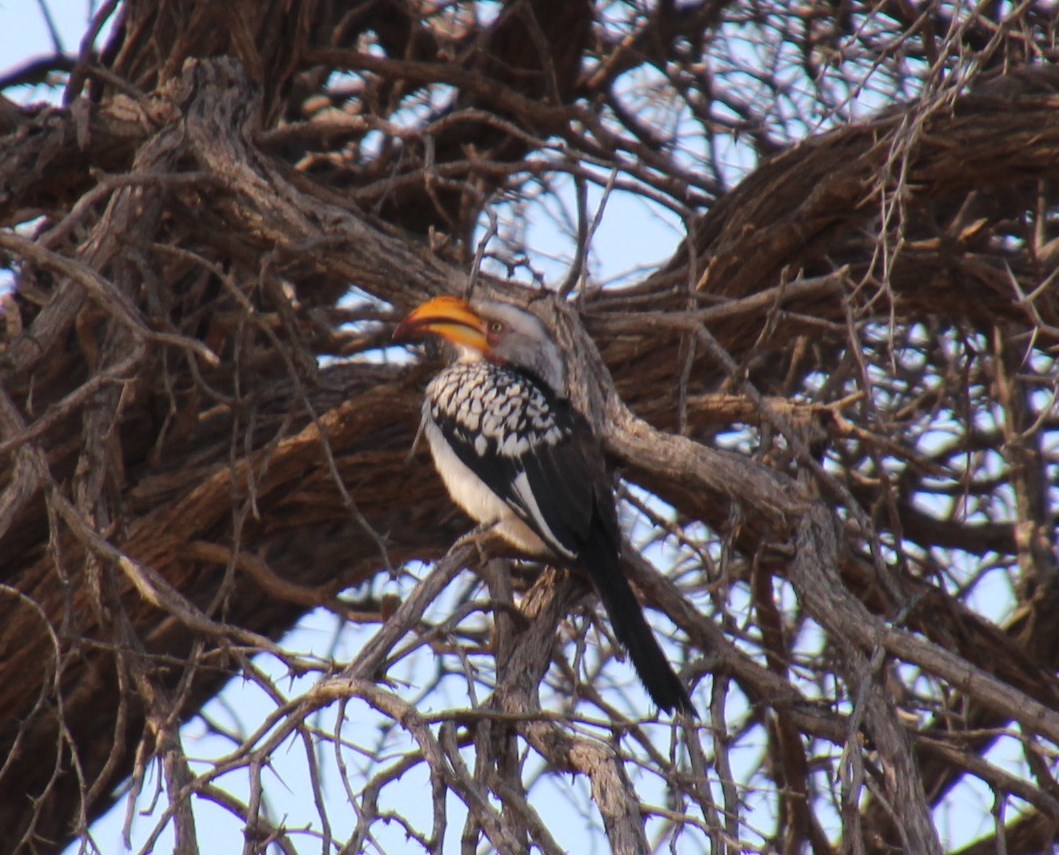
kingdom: Animalia
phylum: Chordata
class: Aves
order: Bucerotiformes
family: Bucerotidae
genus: Tockus
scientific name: Tockus leucomelas
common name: Southern yellow-billed hornbill
